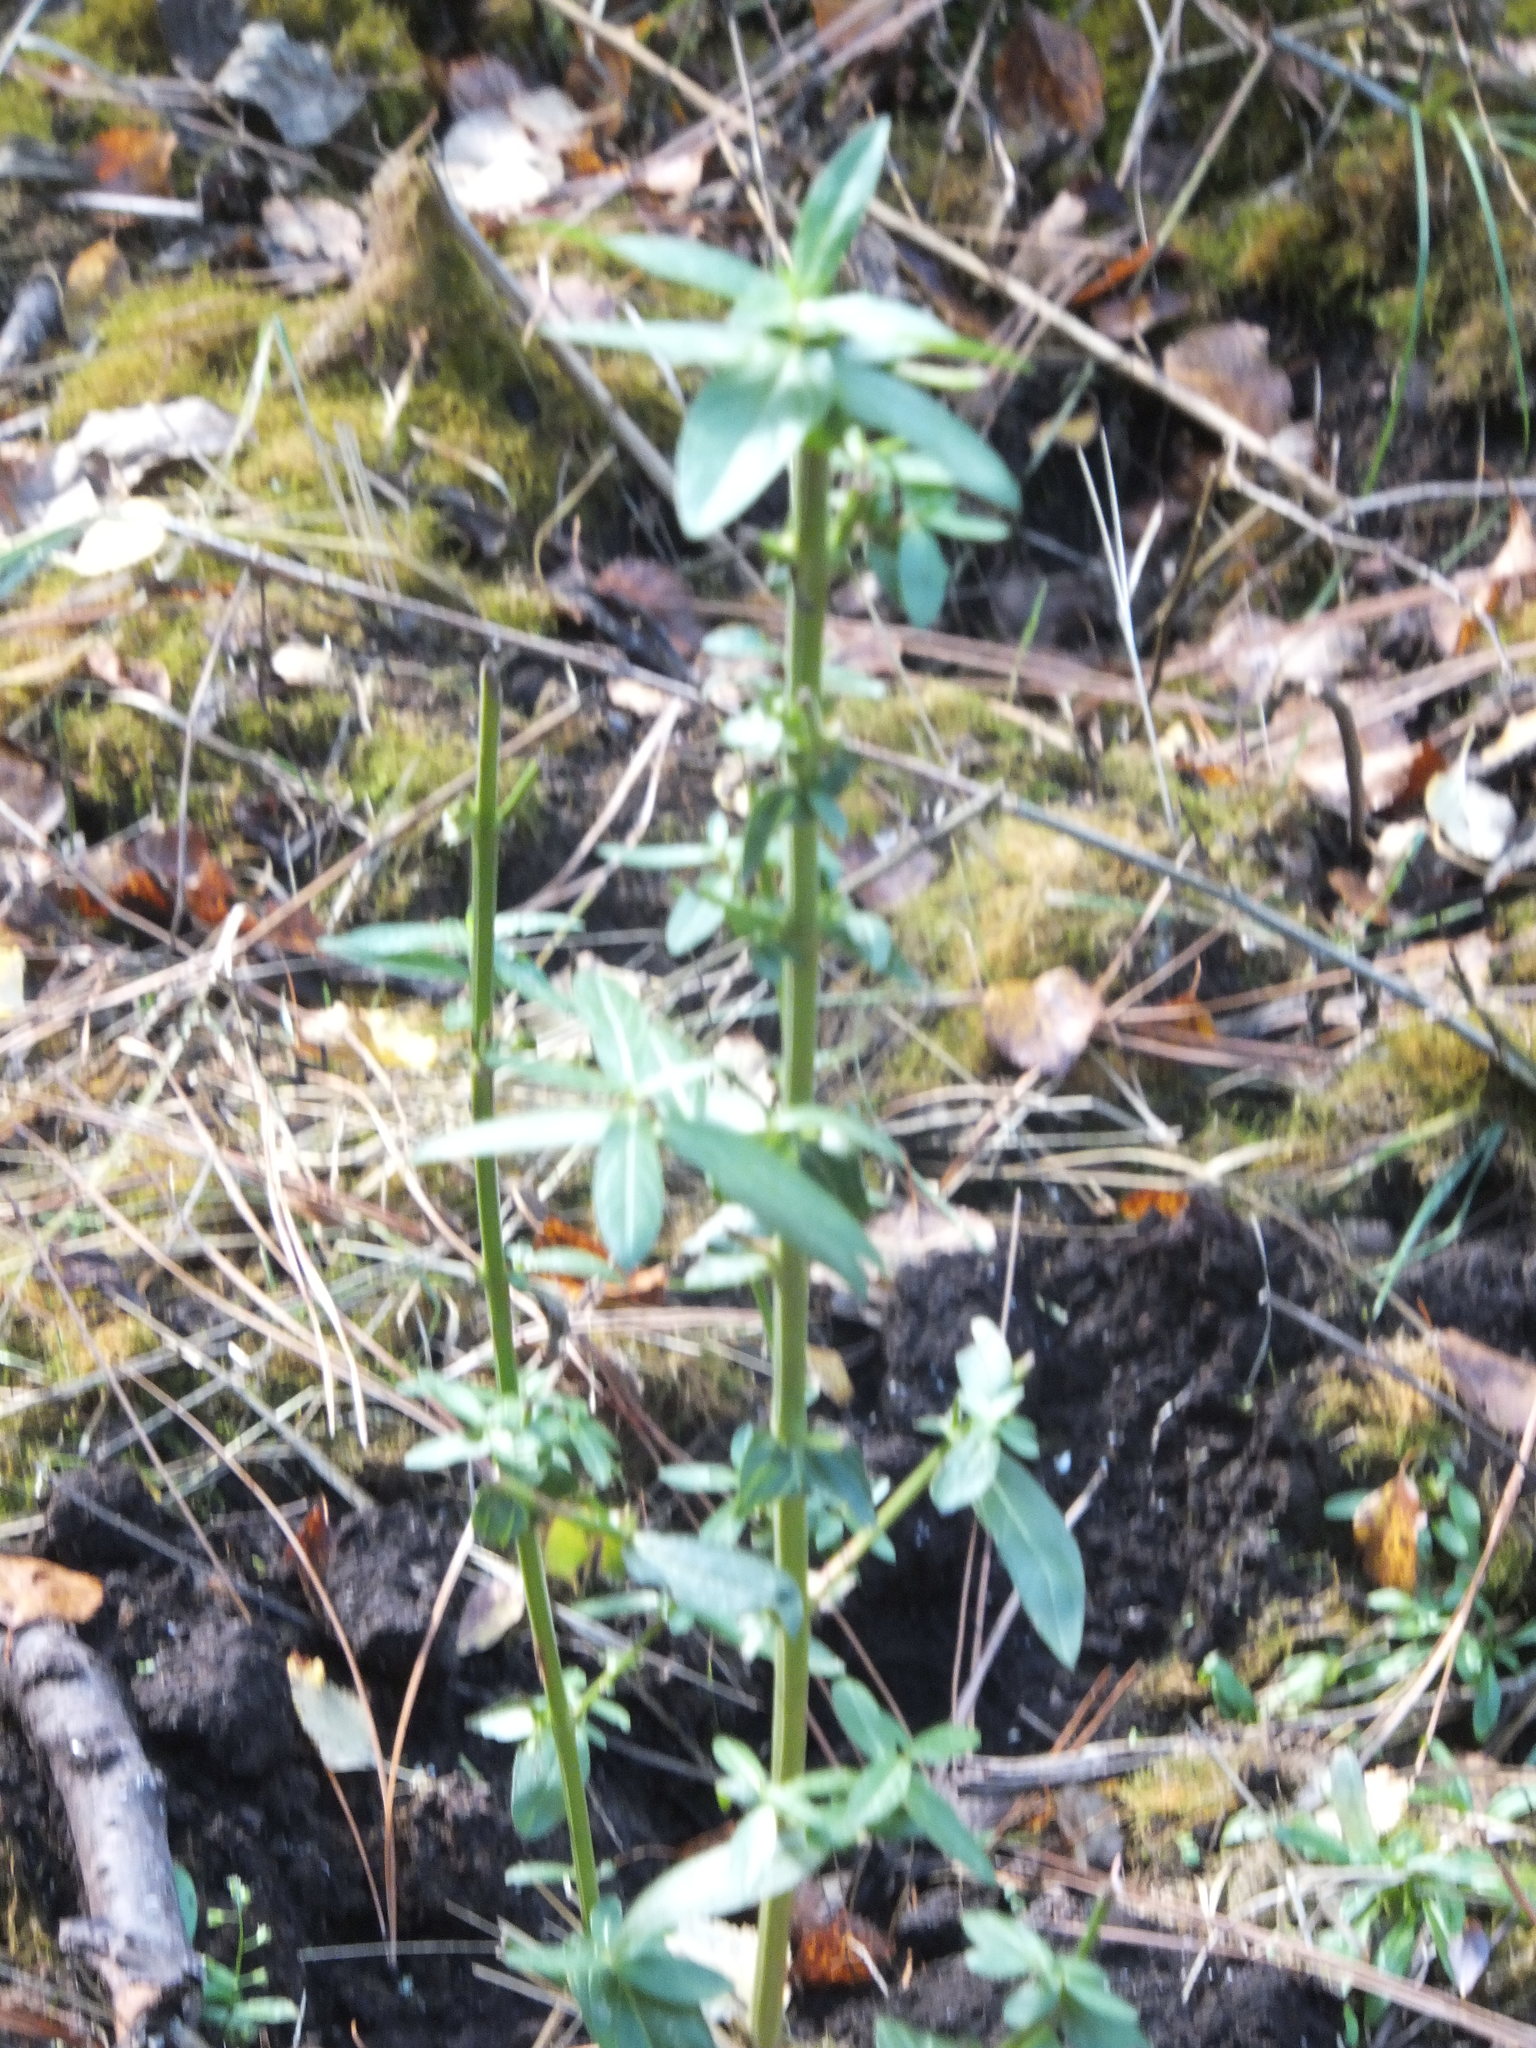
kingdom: Plantae
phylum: Tracheophyta
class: Magnoliopsida
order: Myrtales
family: Lythraceae
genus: Lythrum
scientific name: Lythrum salicaria
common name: Purple loosestrife
